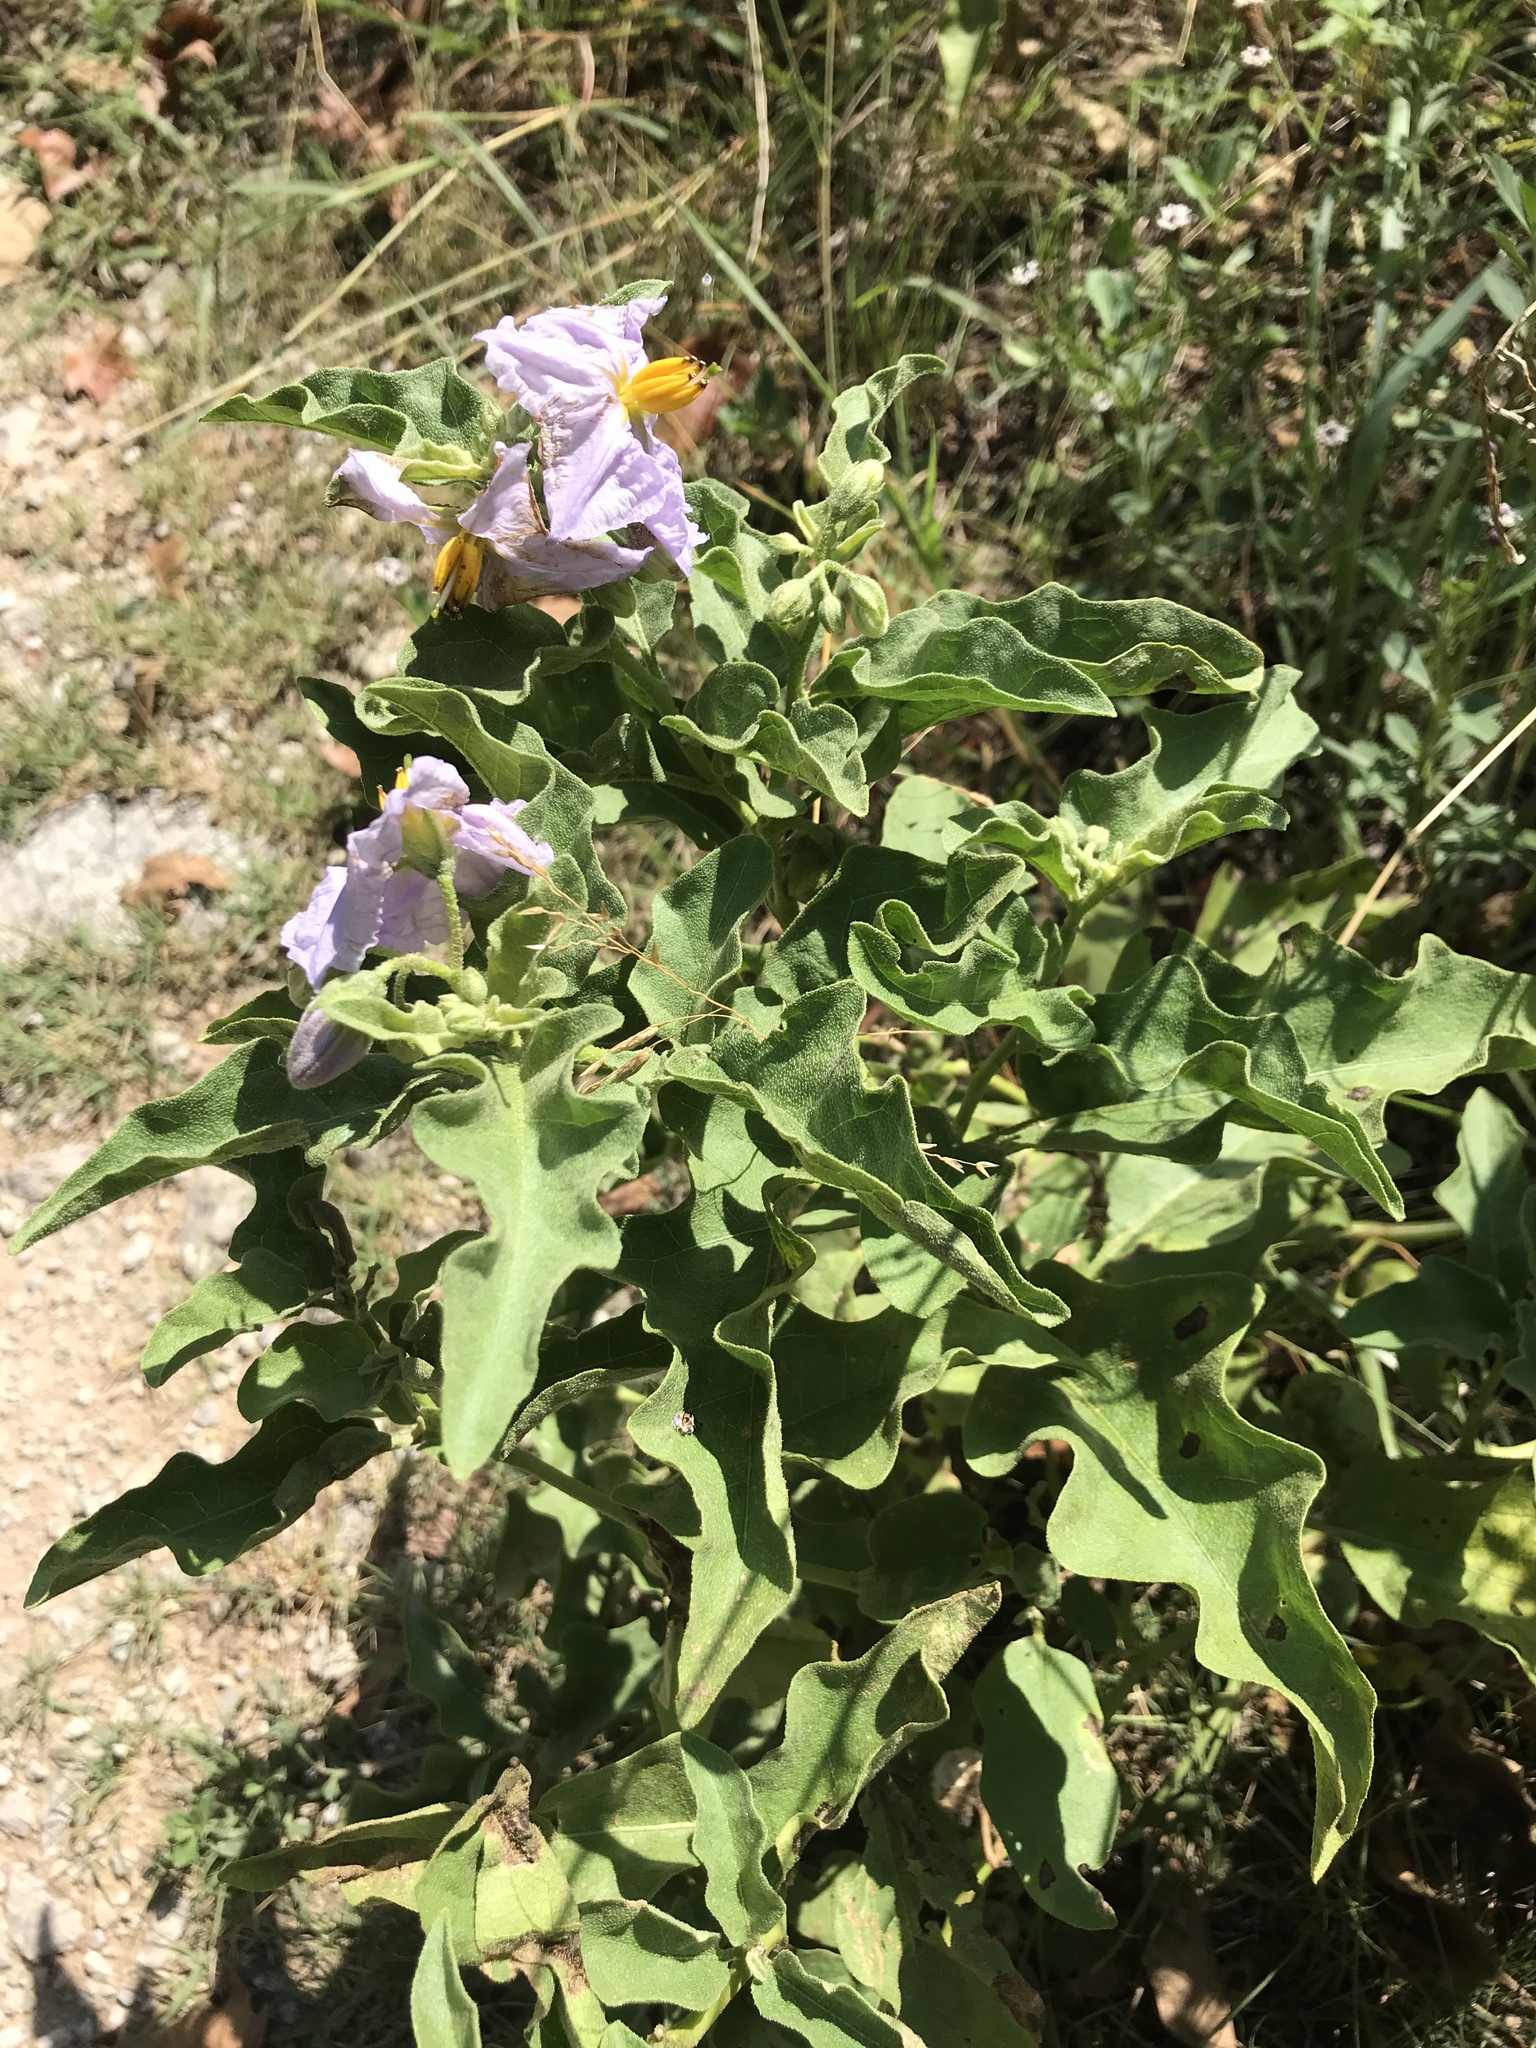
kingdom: Plantae
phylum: Tracheophyta
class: Magnoliopsida
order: Solanales
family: Solanaceae
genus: Solanum
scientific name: Solanum dimidiatum
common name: Carolina horse-nettle
